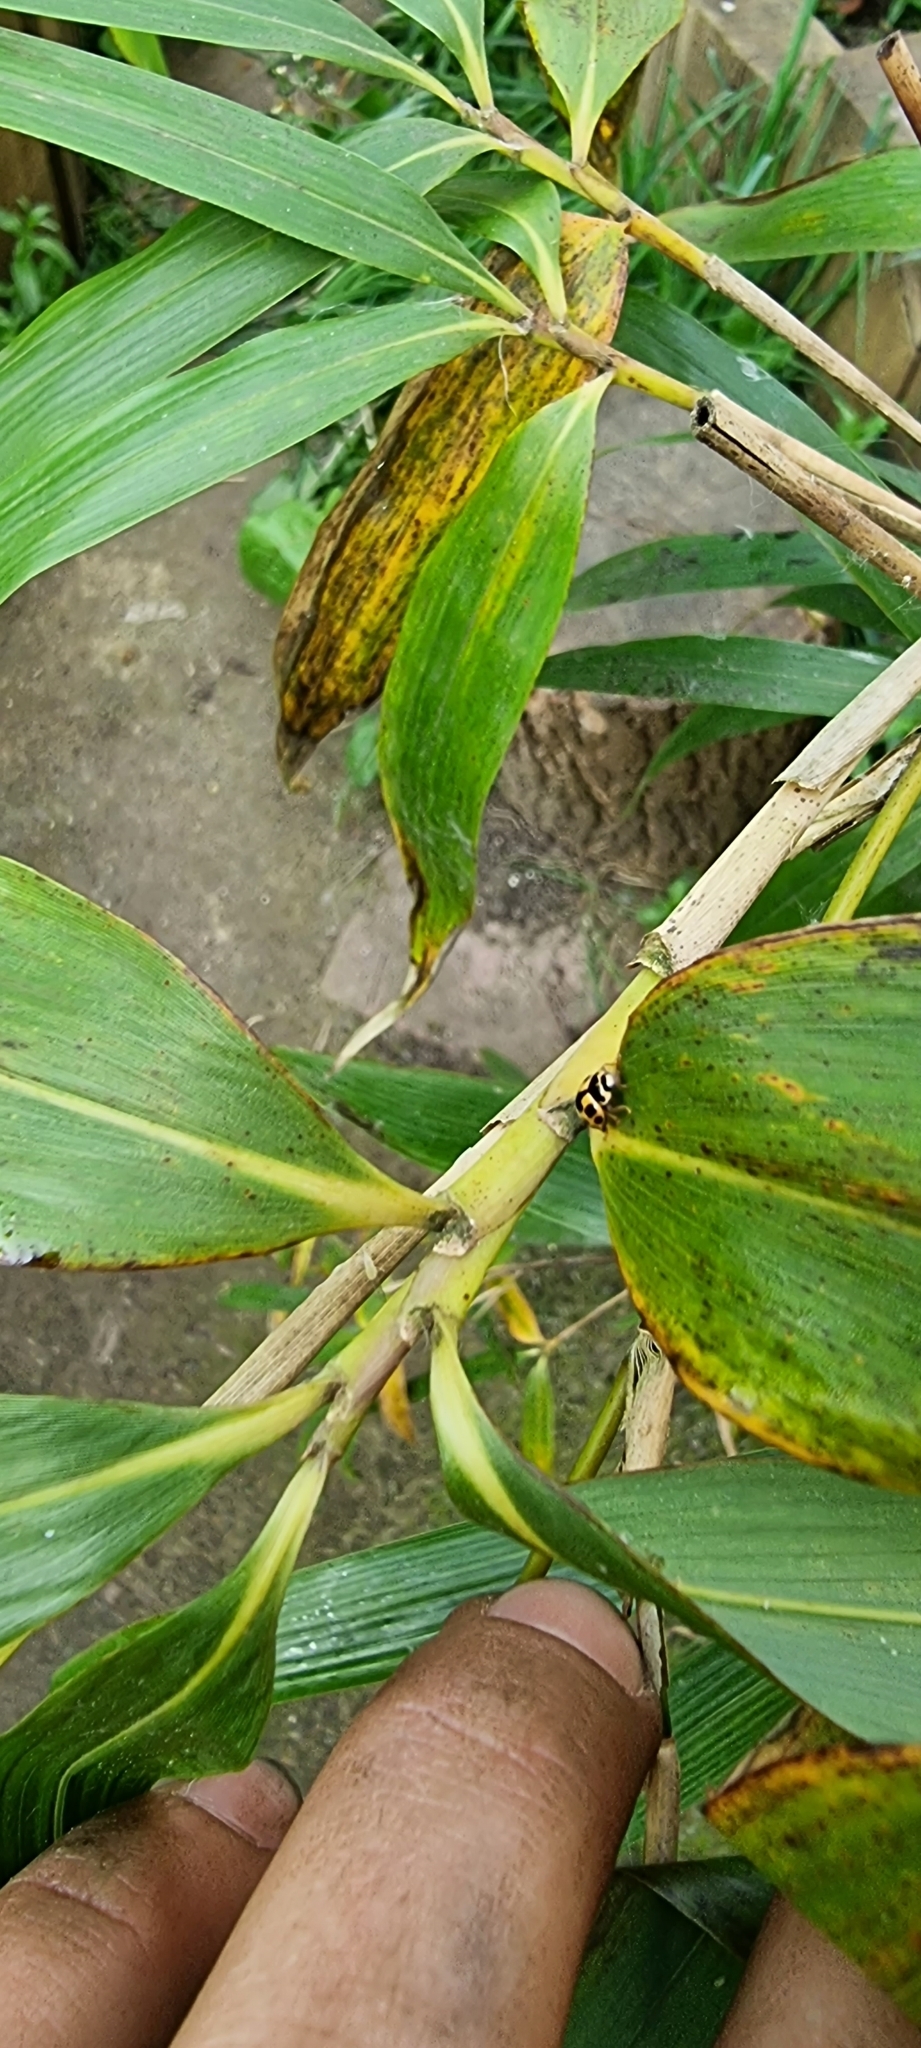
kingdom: Animalia
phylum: Arthropoda
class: Insecta
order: Coleoptera
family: Coccinellidae
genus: Propylaea
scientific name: Propylaea quatuordecimpunctata
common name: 14-spotted ladybird beetle
